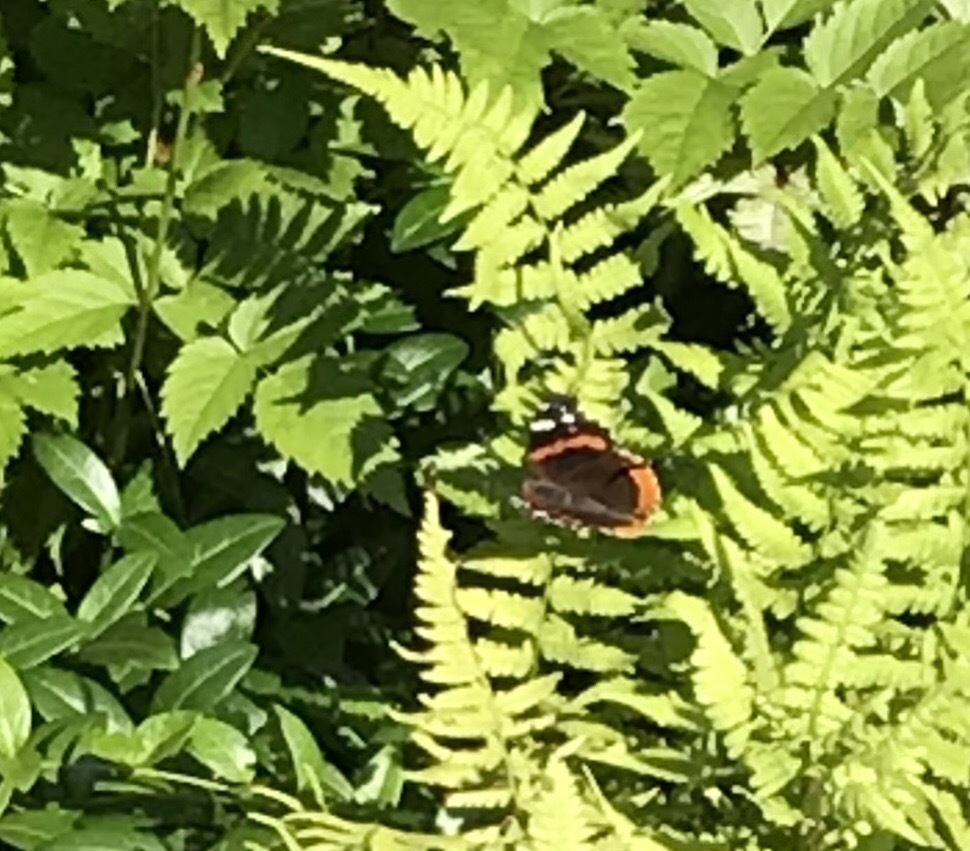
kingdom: Animalia
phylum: Arthropoda
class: Insecta
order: Lepidoptera
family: Nymphalidae
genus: Vanessa
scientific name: Vanessa atalanta
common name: Red admiral
